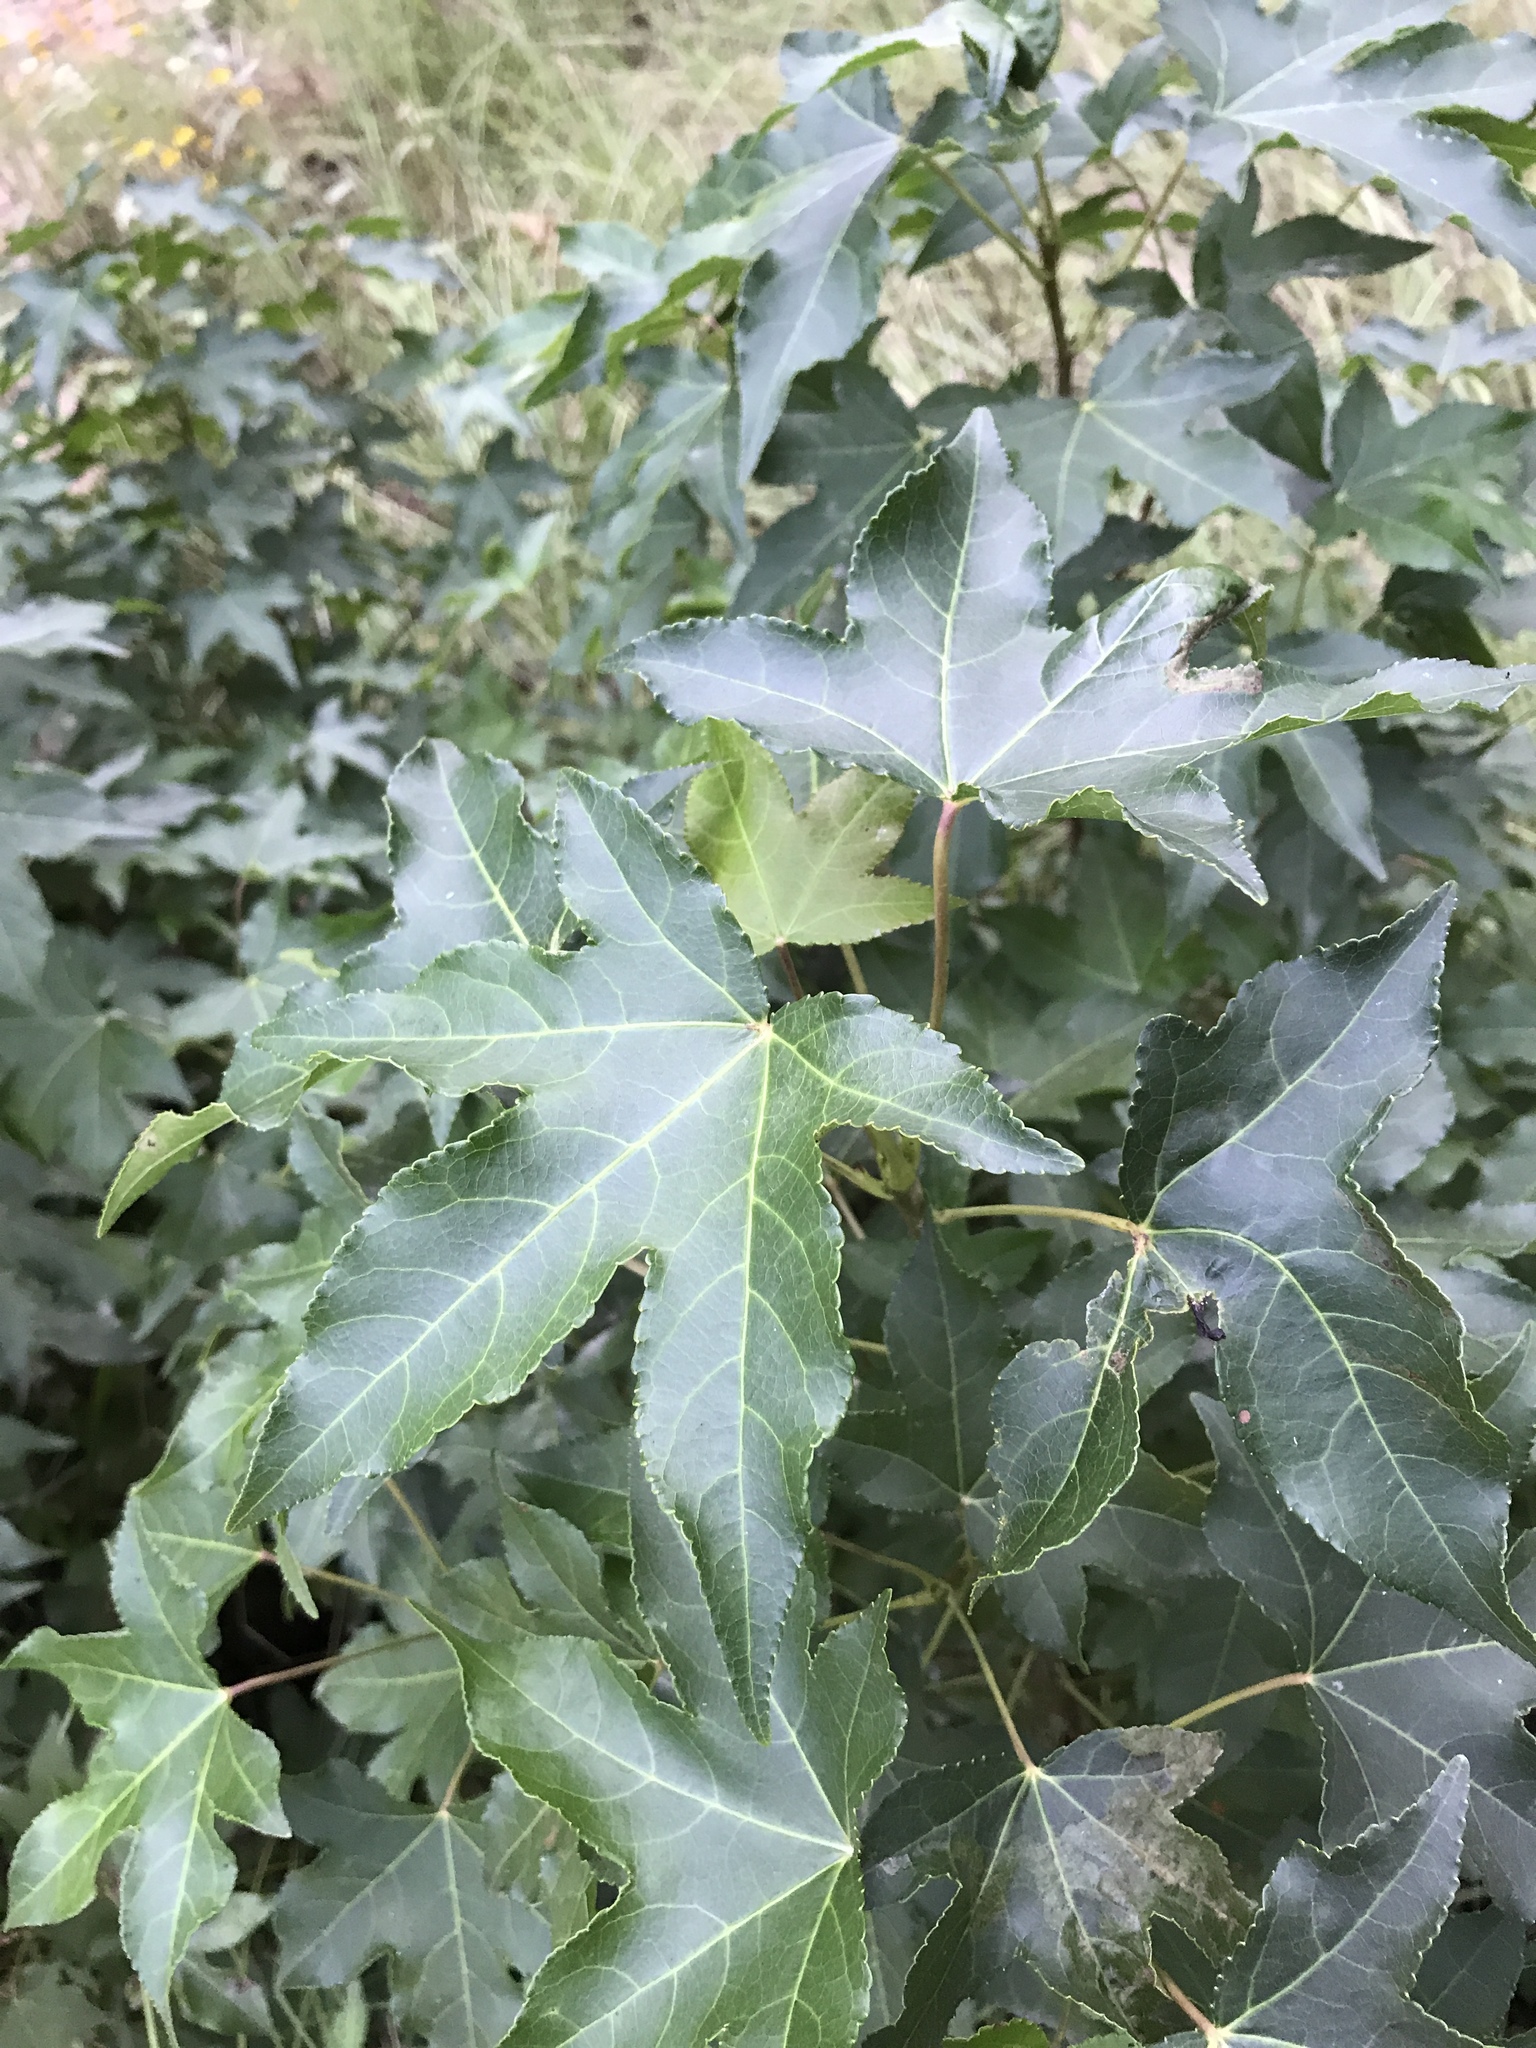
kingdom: Plantae
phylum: Tracheophyta
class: Magnoliopsida
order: Saxifragales
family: Altingiaceae
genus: Liquidambar
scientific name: Liquidambar styraciflua
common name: Sweet gum
